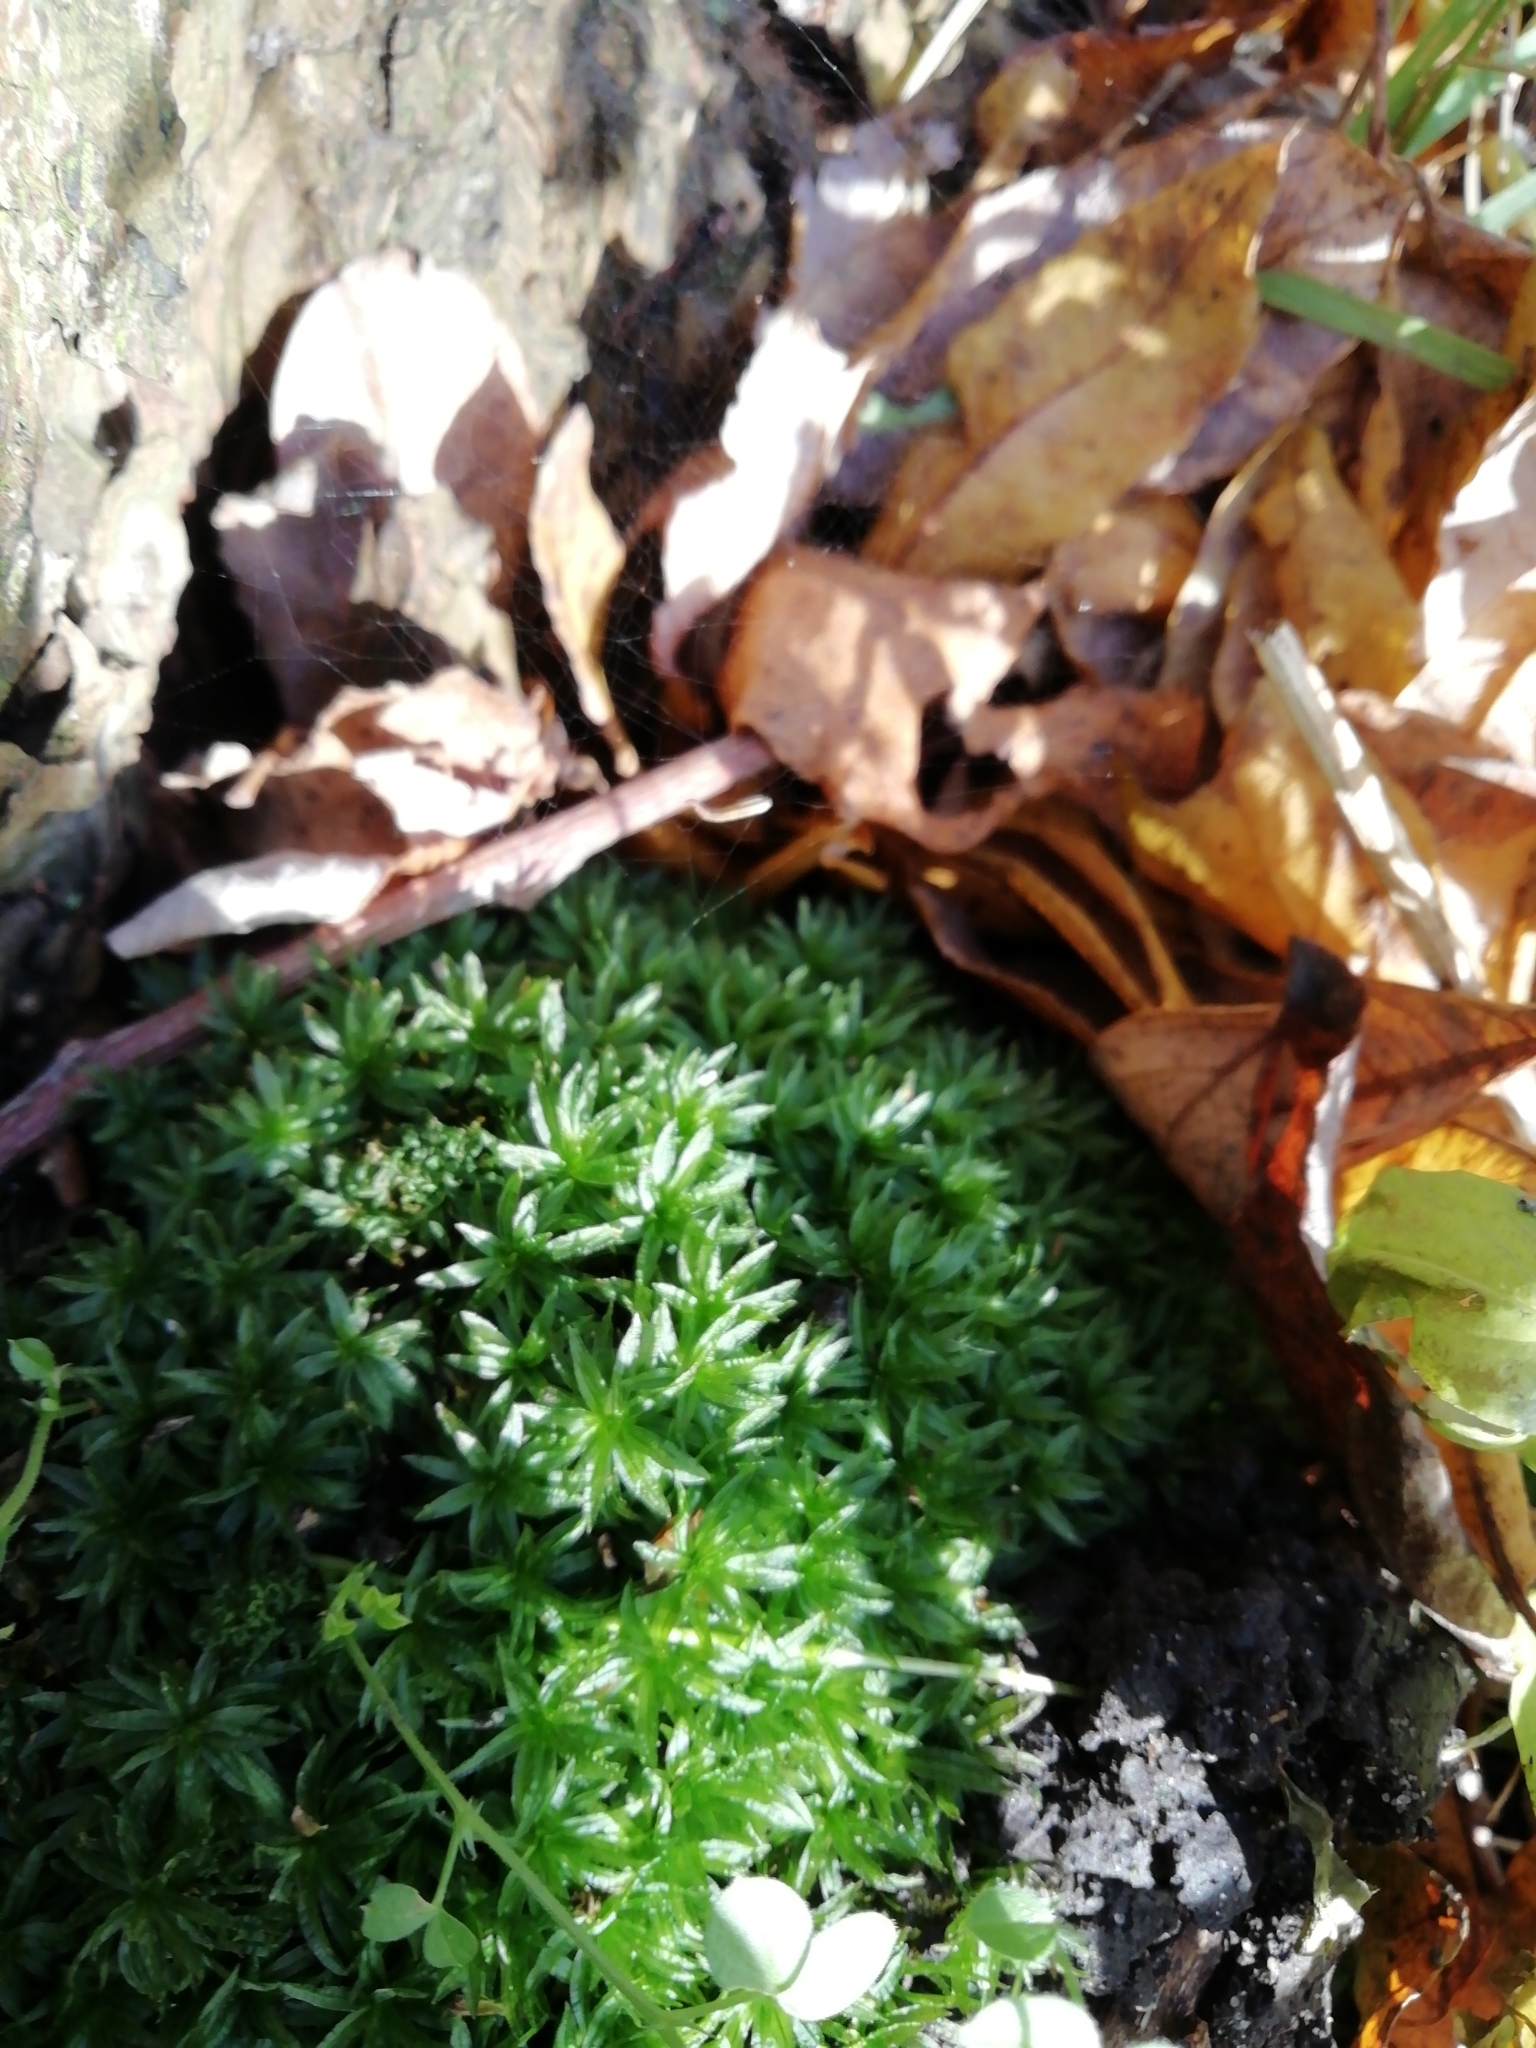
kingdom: Plantae
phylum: Bryophyta
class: Polytrichopsida
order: Polytrichales
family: Polytrichaceae
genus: Atrichum
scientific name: Atrichum undulatum
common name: Common smoothcap
